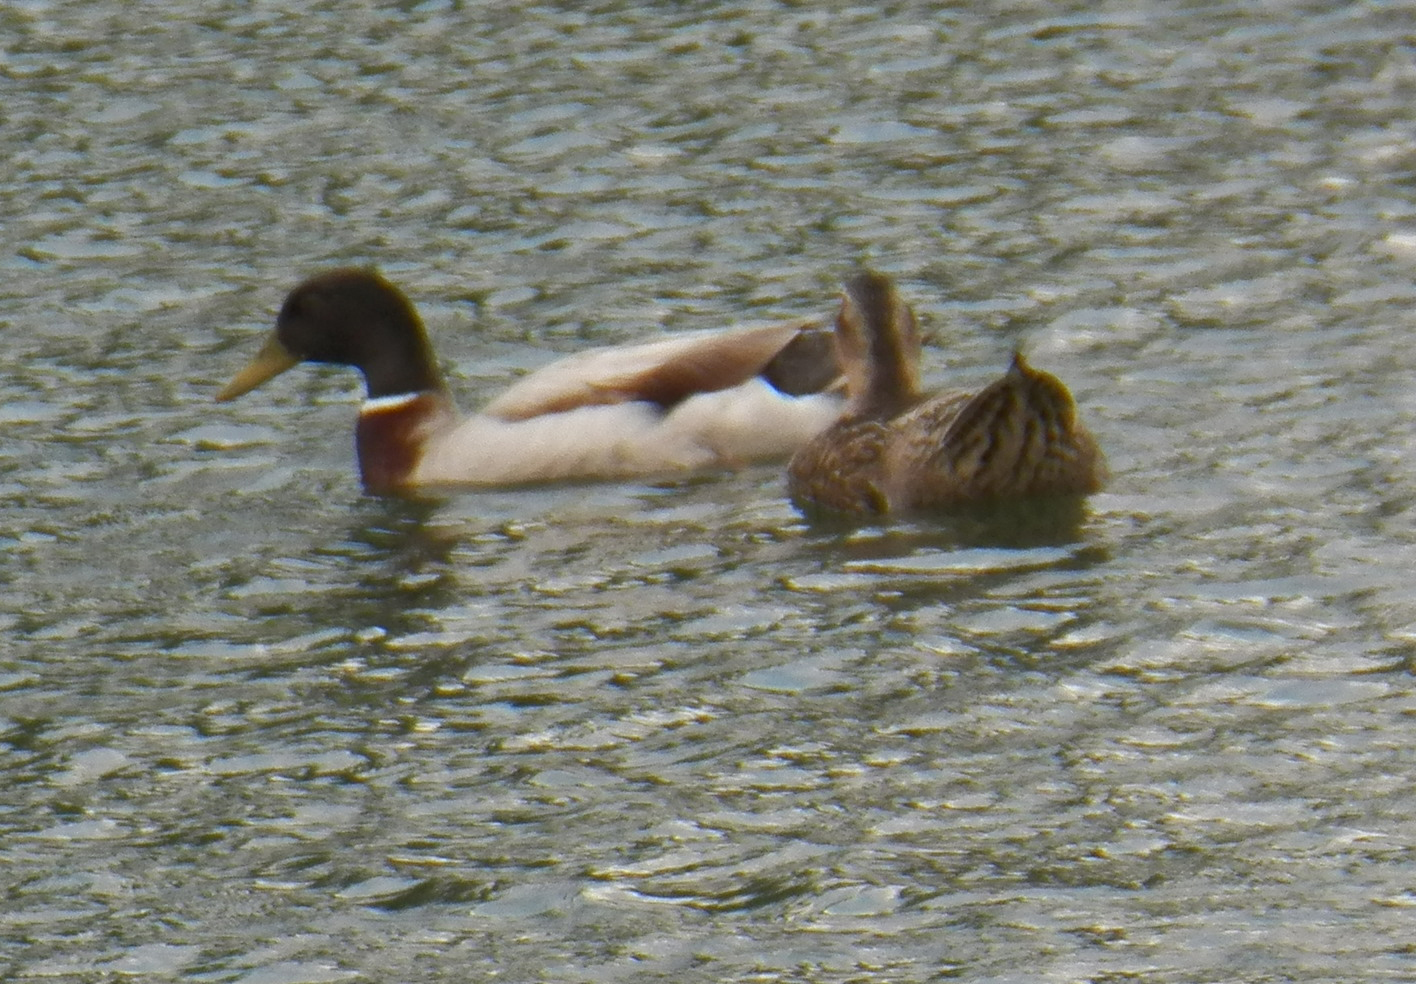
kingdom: Animalia
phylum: Chordata
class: Aves
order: Anseriformes
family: Anatidae
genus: Anas
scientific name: Anas platyrhynchos
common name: Mallard
